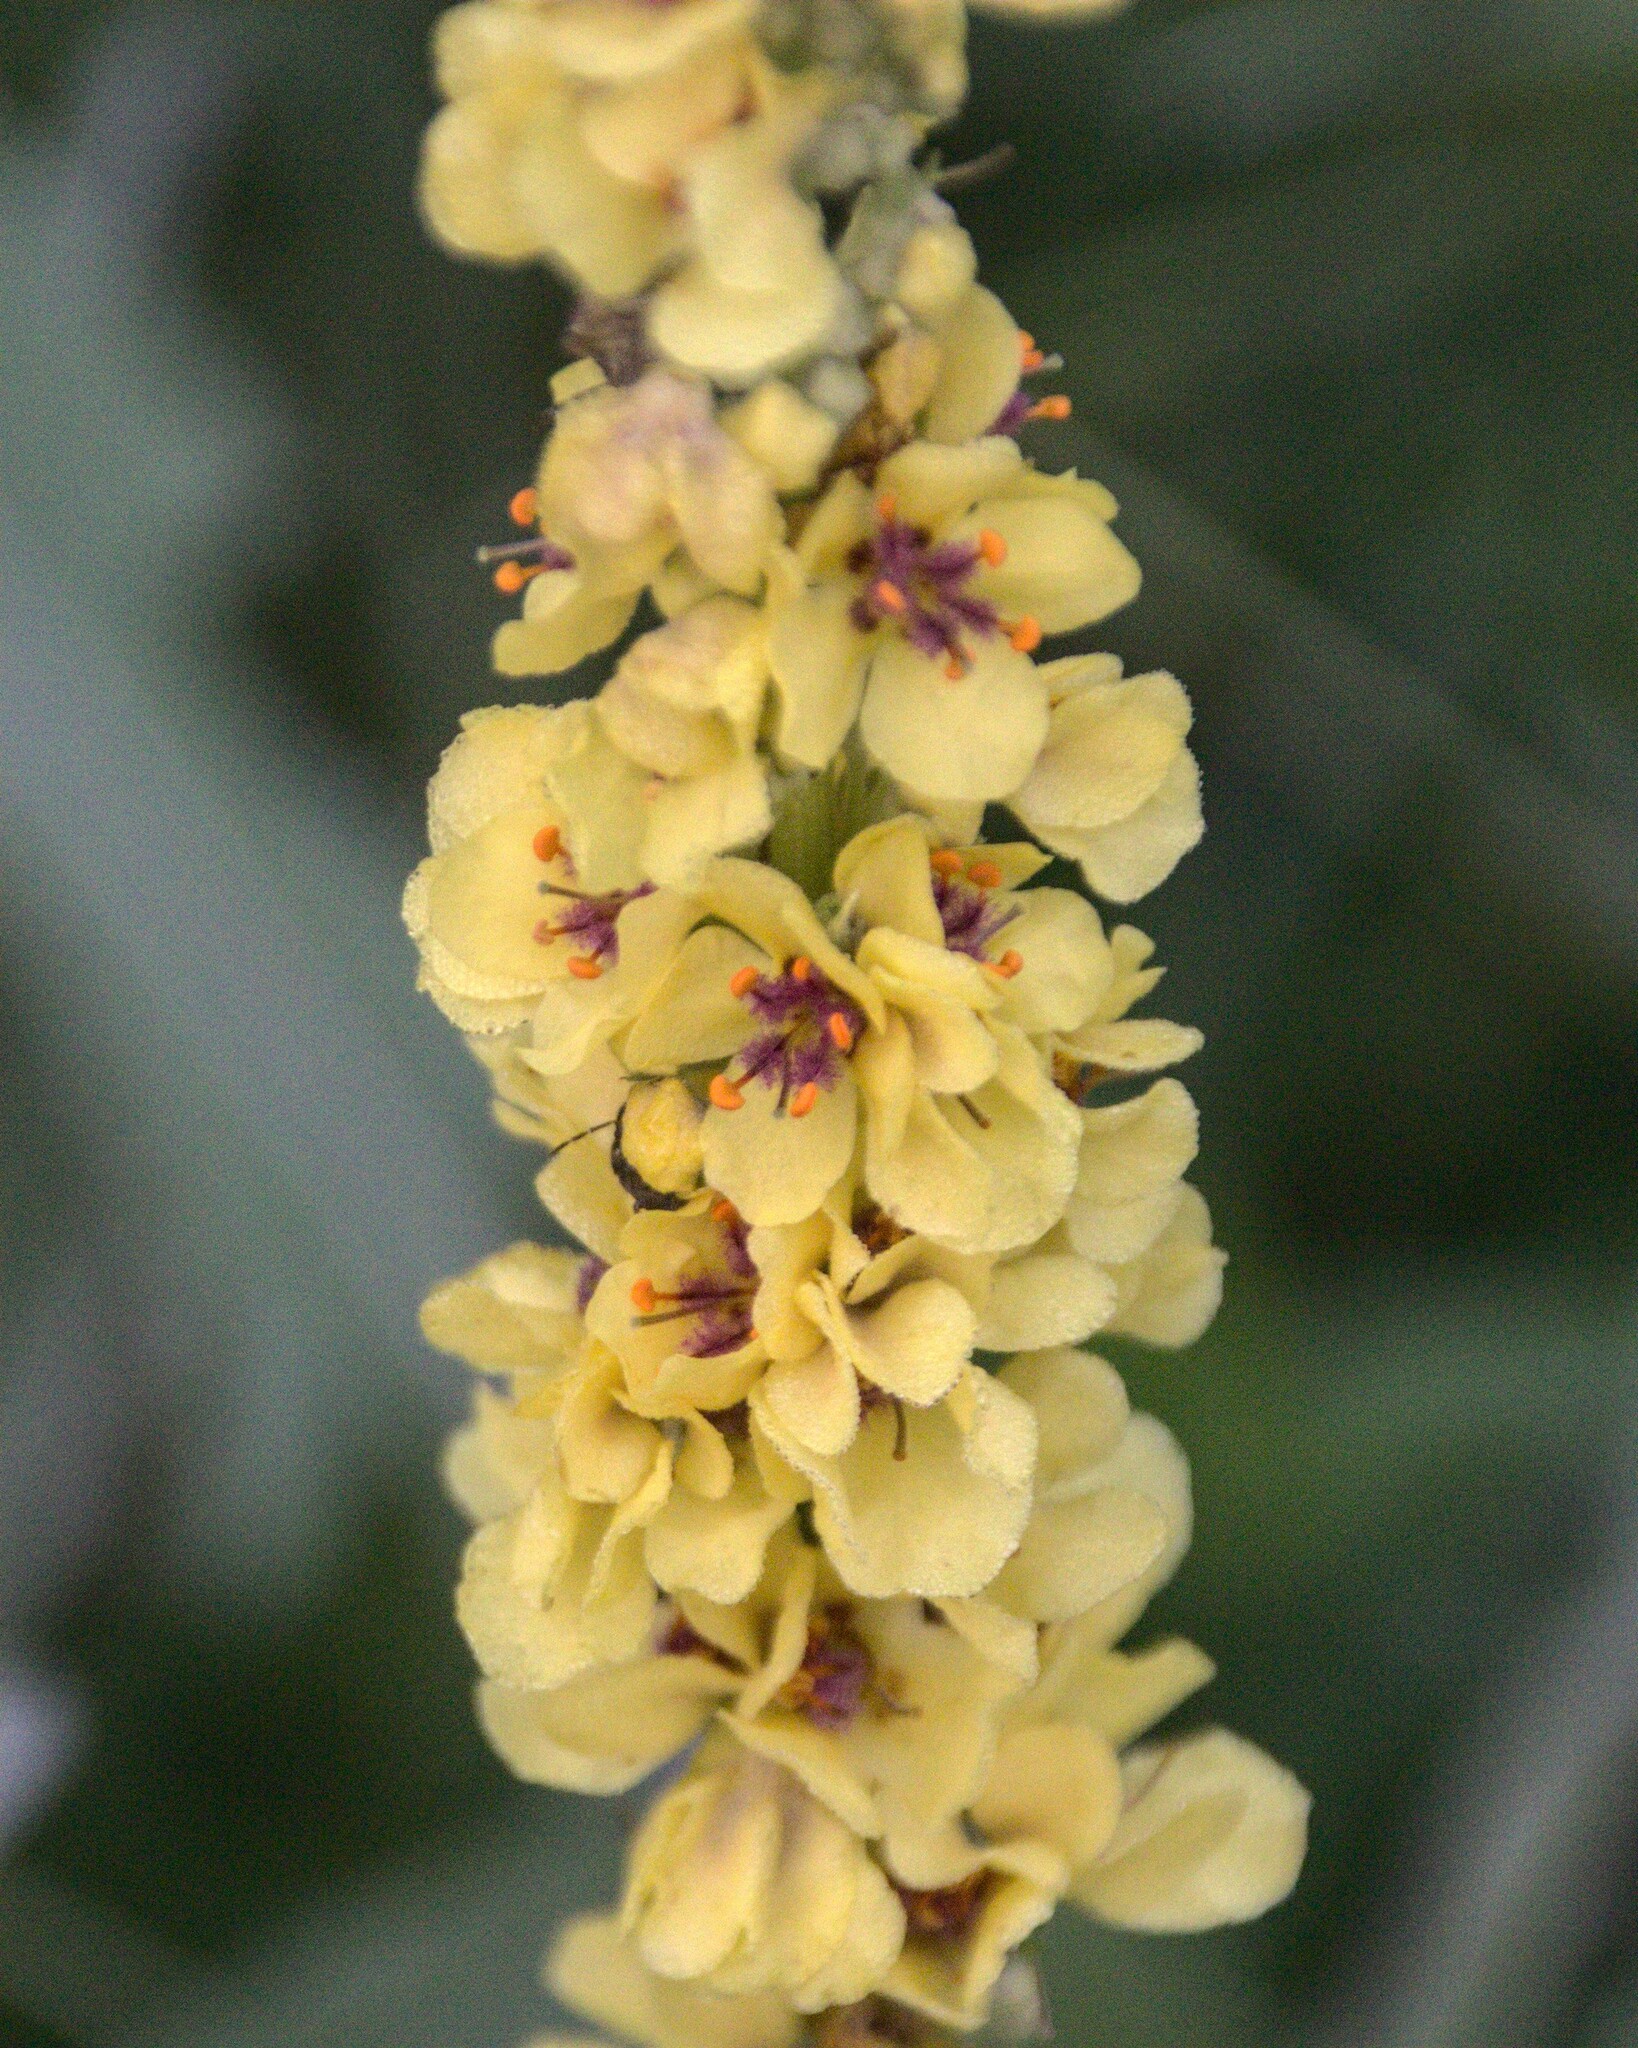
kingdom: Plantae
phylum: Tracheophyta
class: Magnoliopsida
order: Lamiales
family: Scrophulariaceae
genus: Verbascum
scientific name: Verbascum nigrum
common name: Dark mullein
